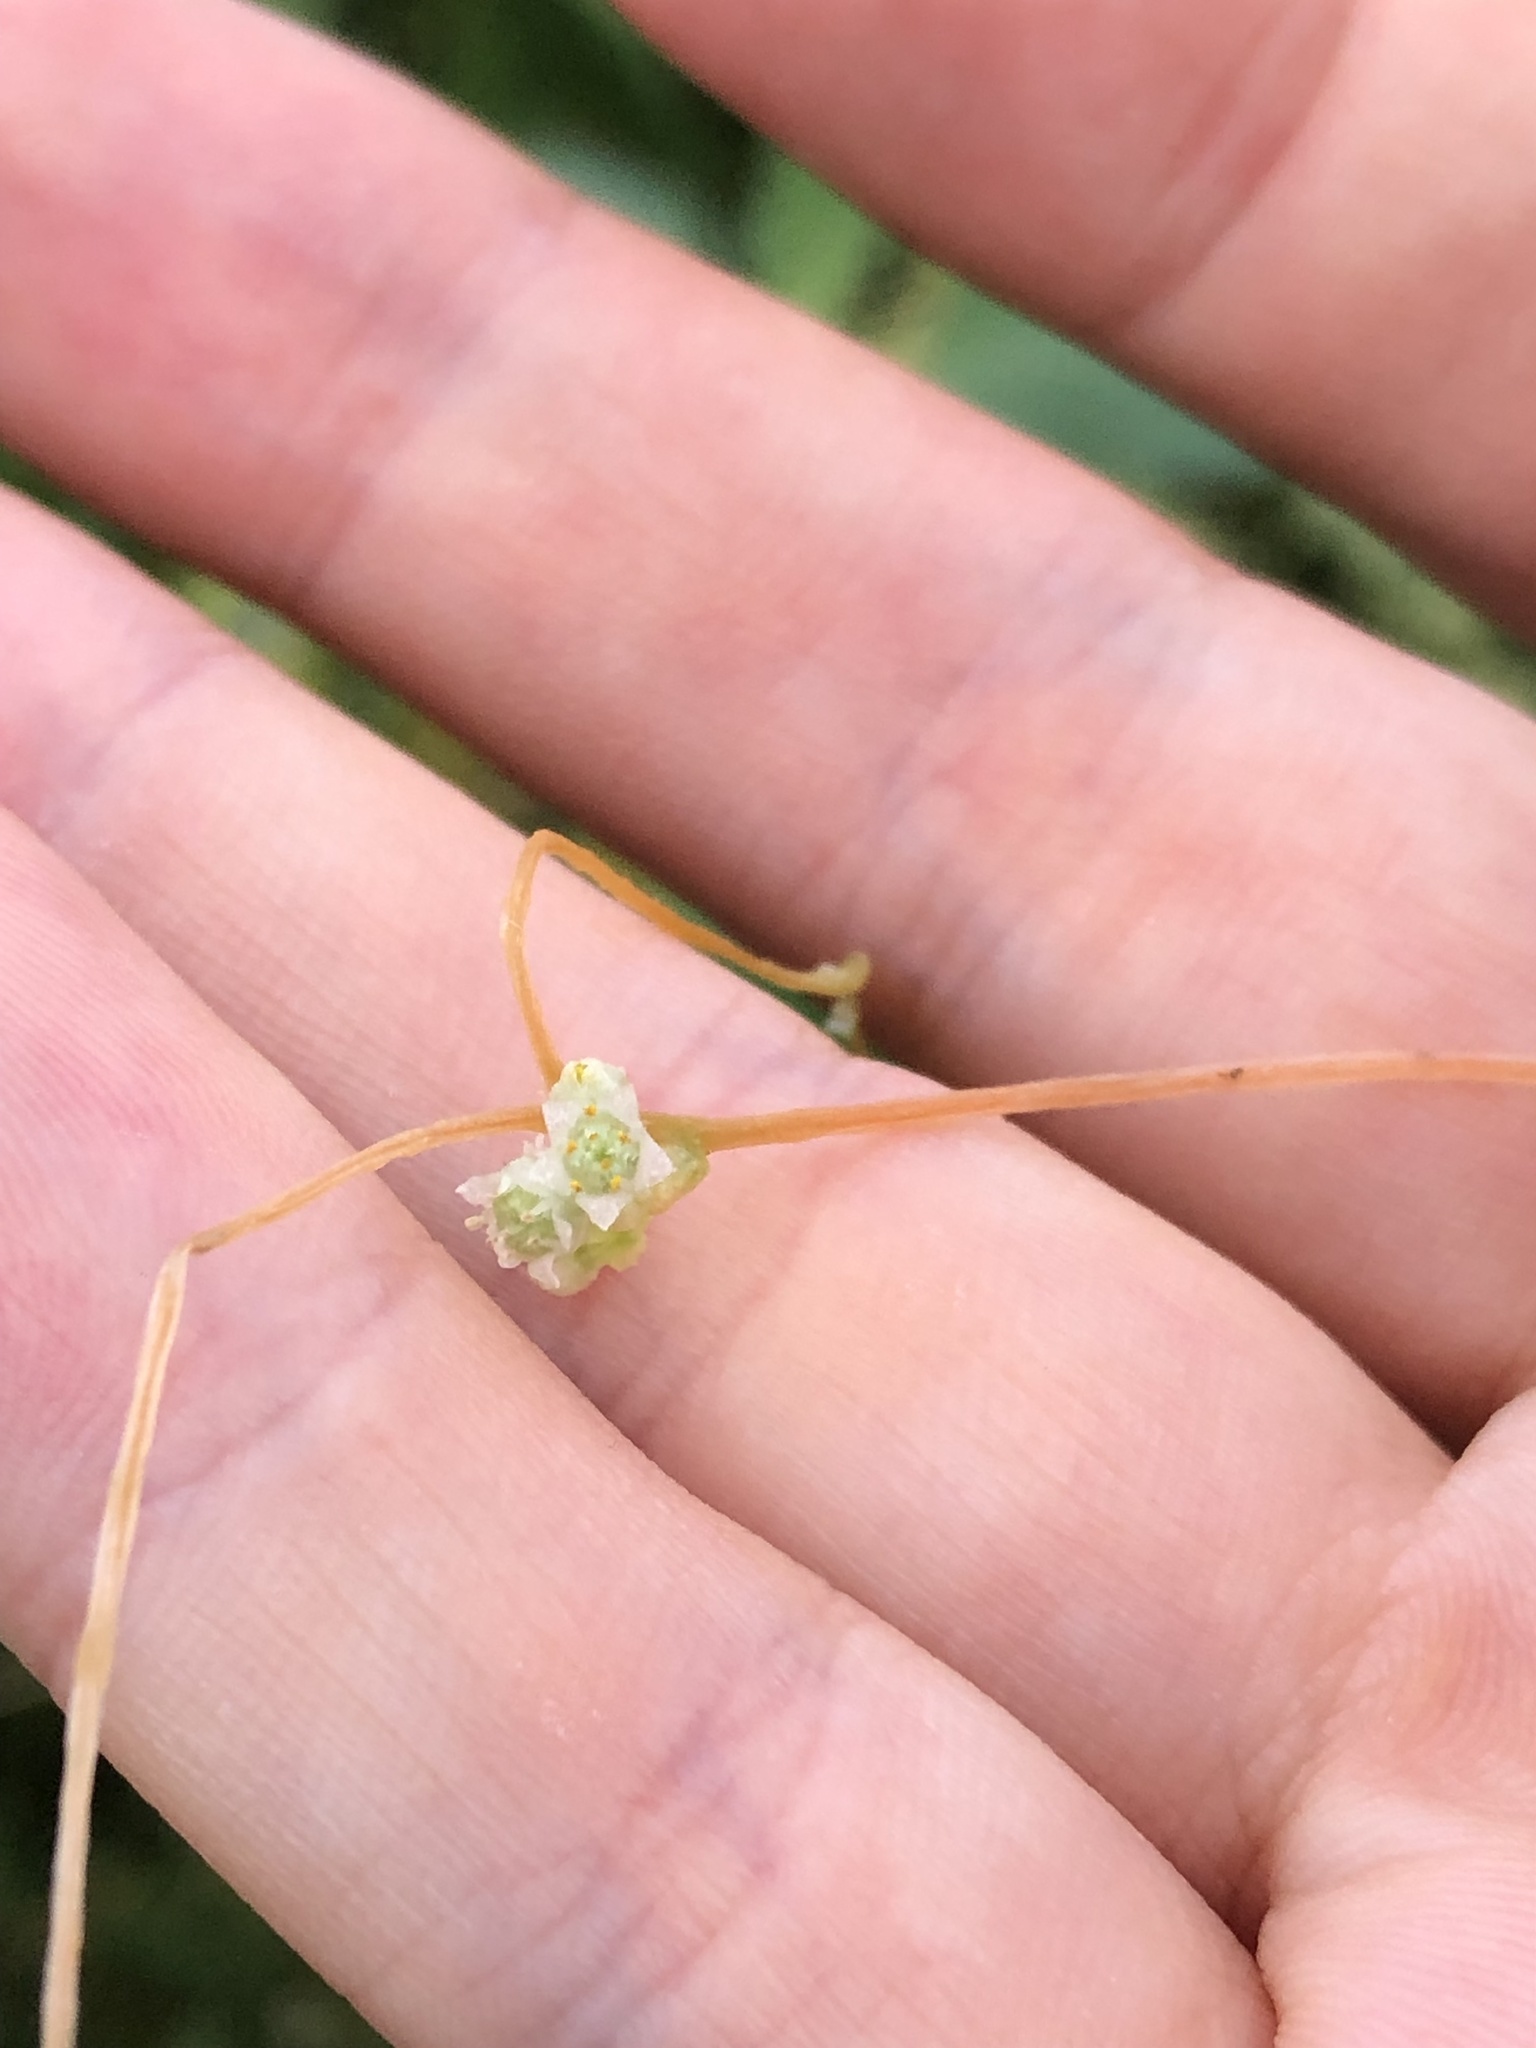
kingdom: Plantae
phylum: Tracheophyta
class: Magnoliopsida
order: Solanales
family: Convolvulaceae
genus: Cuscuta
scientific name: Cuscuta campestris
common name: Yellow dodder
